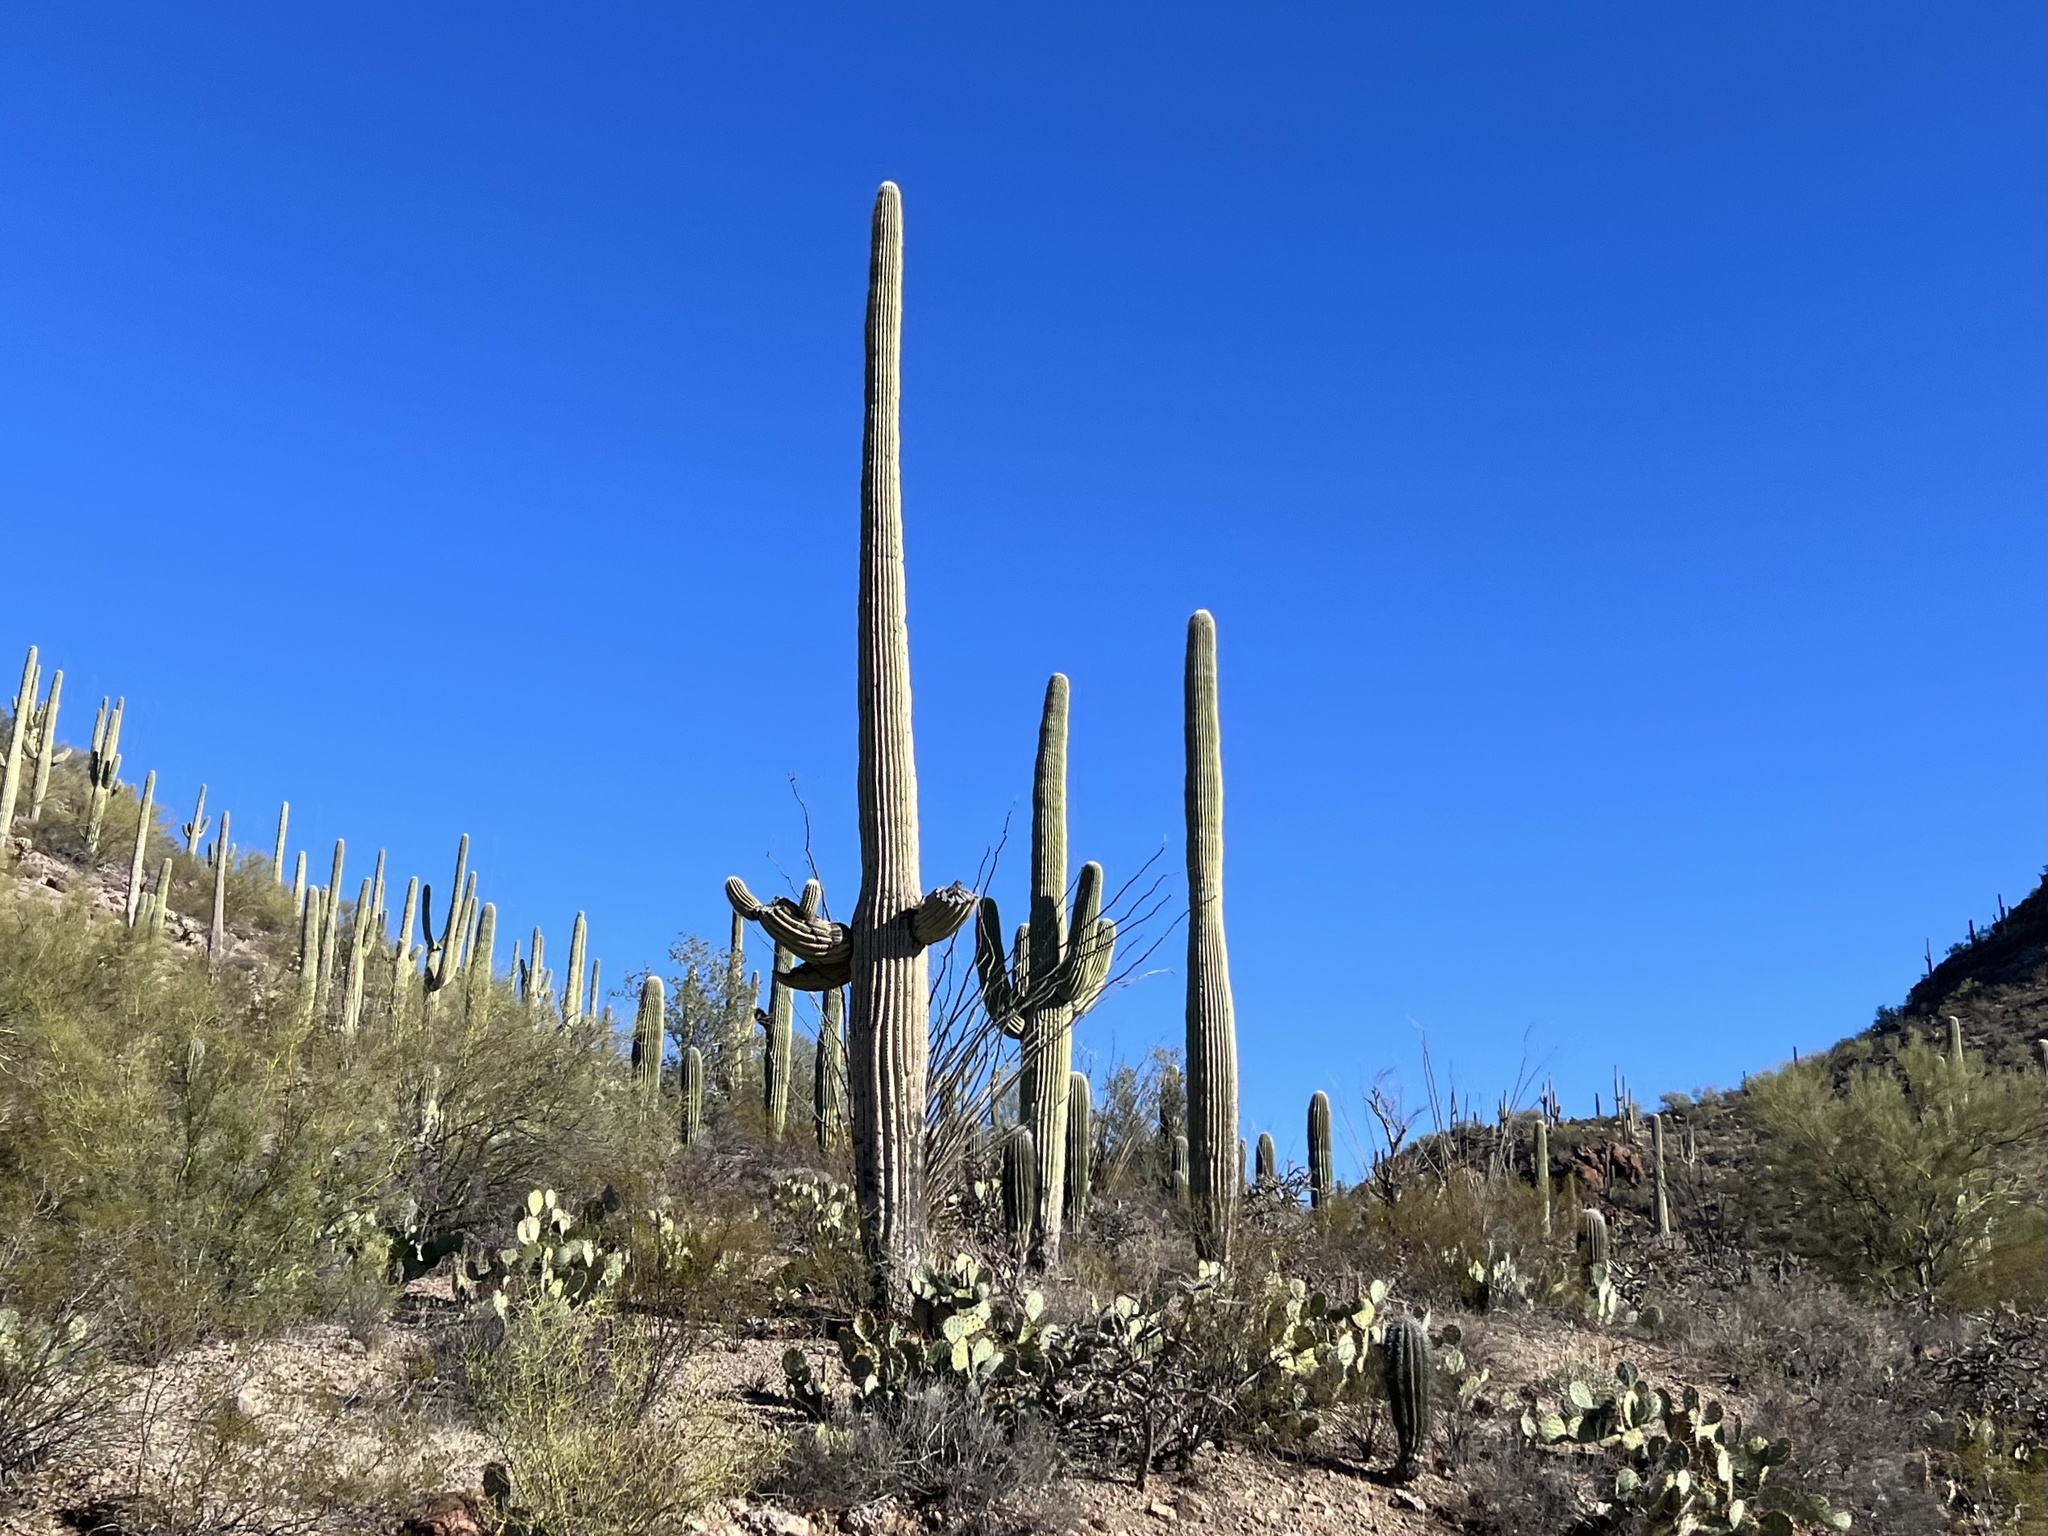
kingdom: Plantae
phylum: Tracheophyta
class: Magnoliopsida
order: Caryophyllales
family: Cactaceae
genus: Carnegiea
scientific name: Carnegiea gigantea
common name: Saguaro
